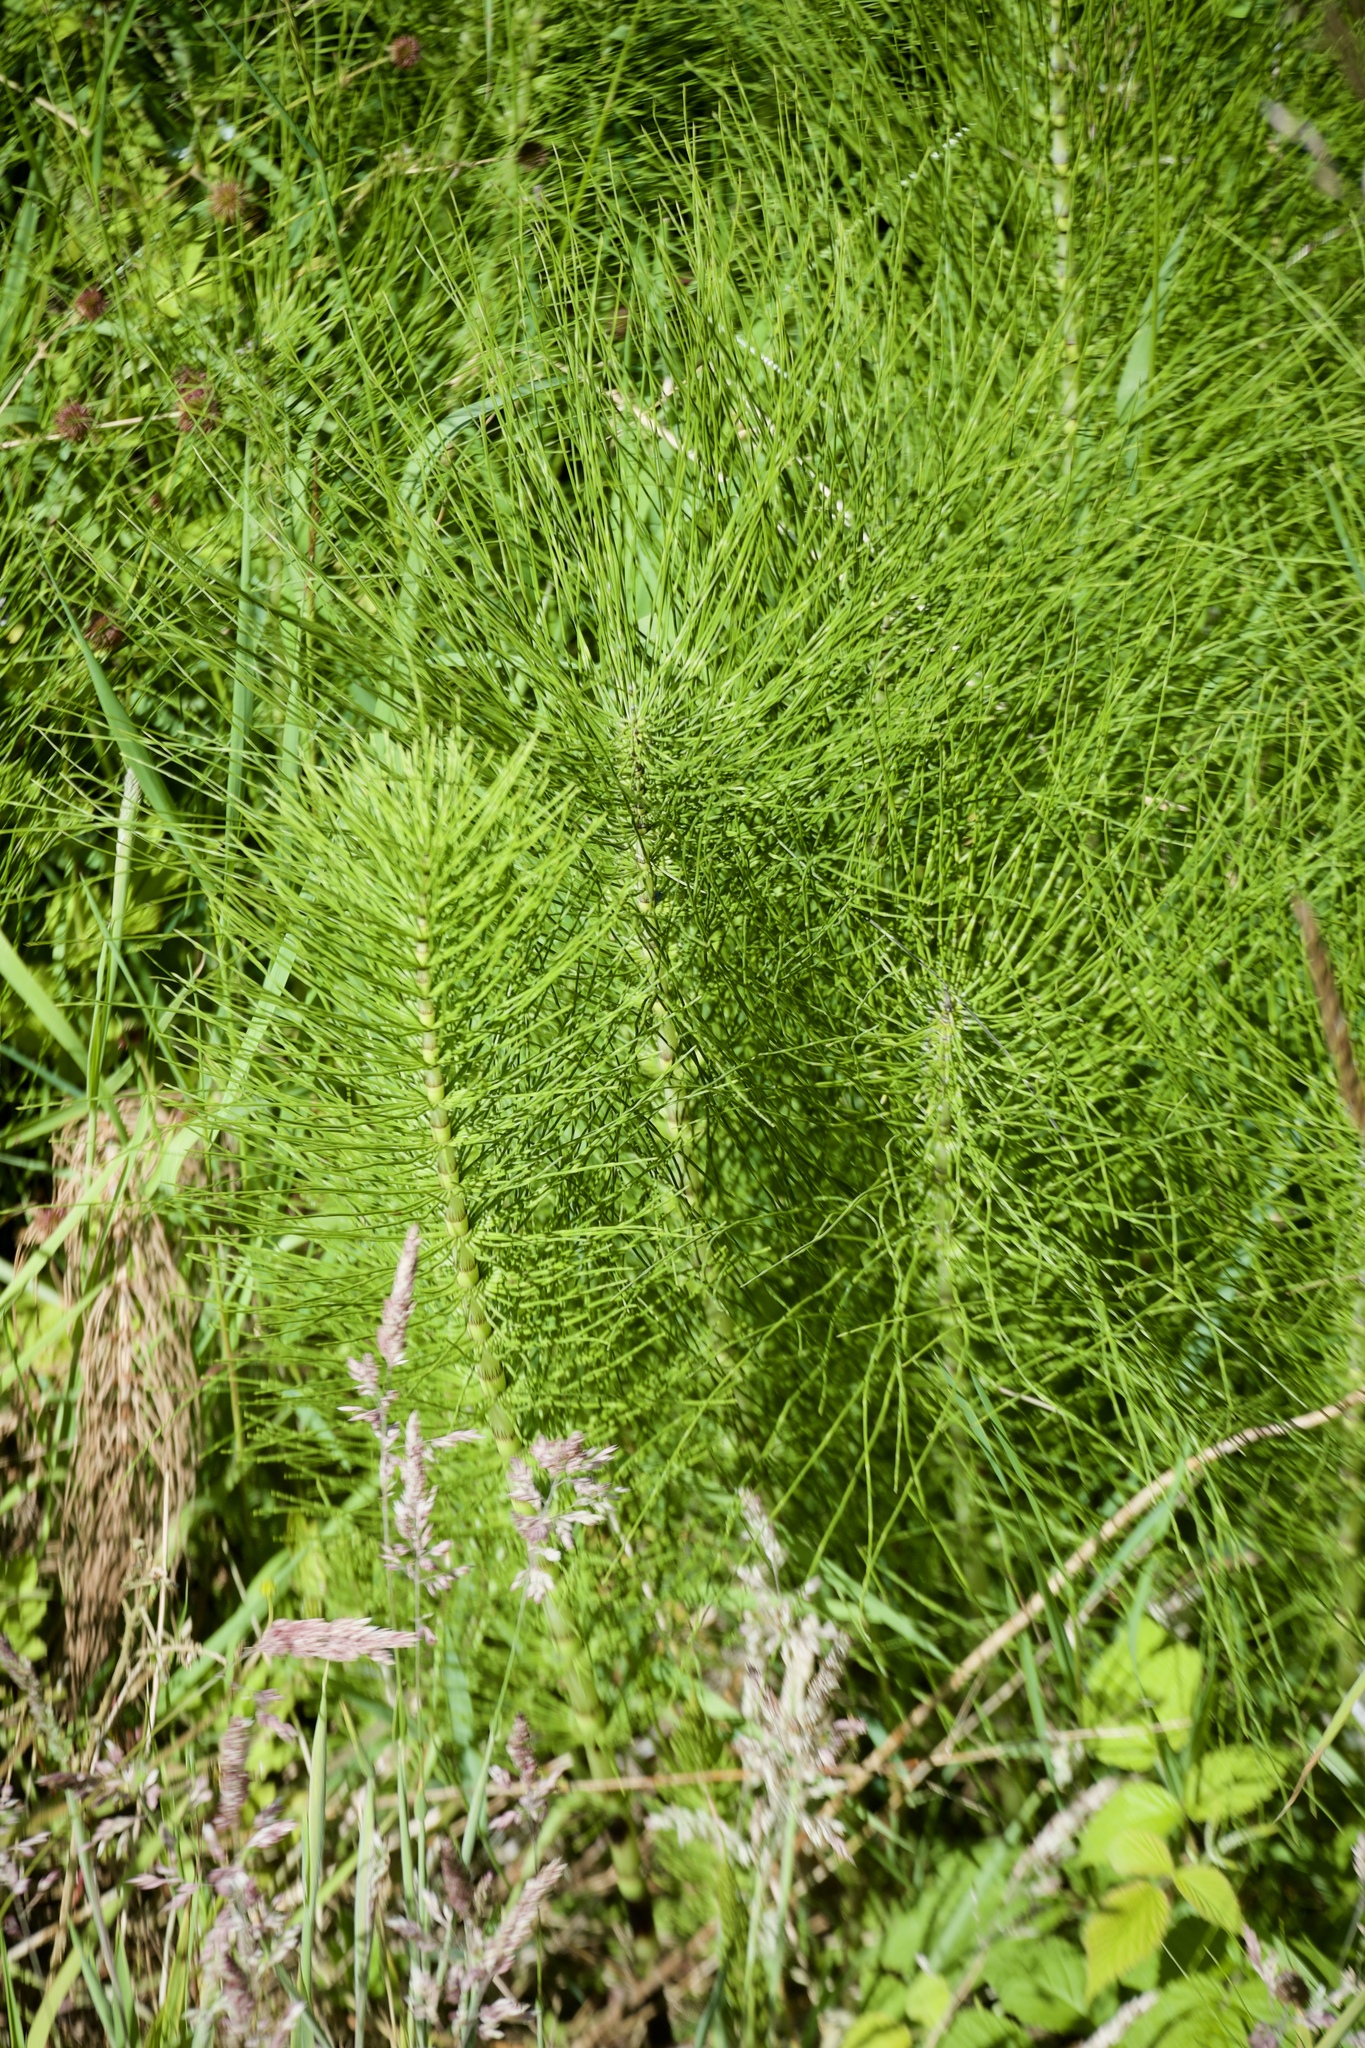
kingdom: Plantae
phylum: Tracheophyta
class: Polypodiopsida
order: Equisetales
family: Equisetaceae
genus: Equisetum
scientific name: Equisetum telmateia
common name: Great horsetail
